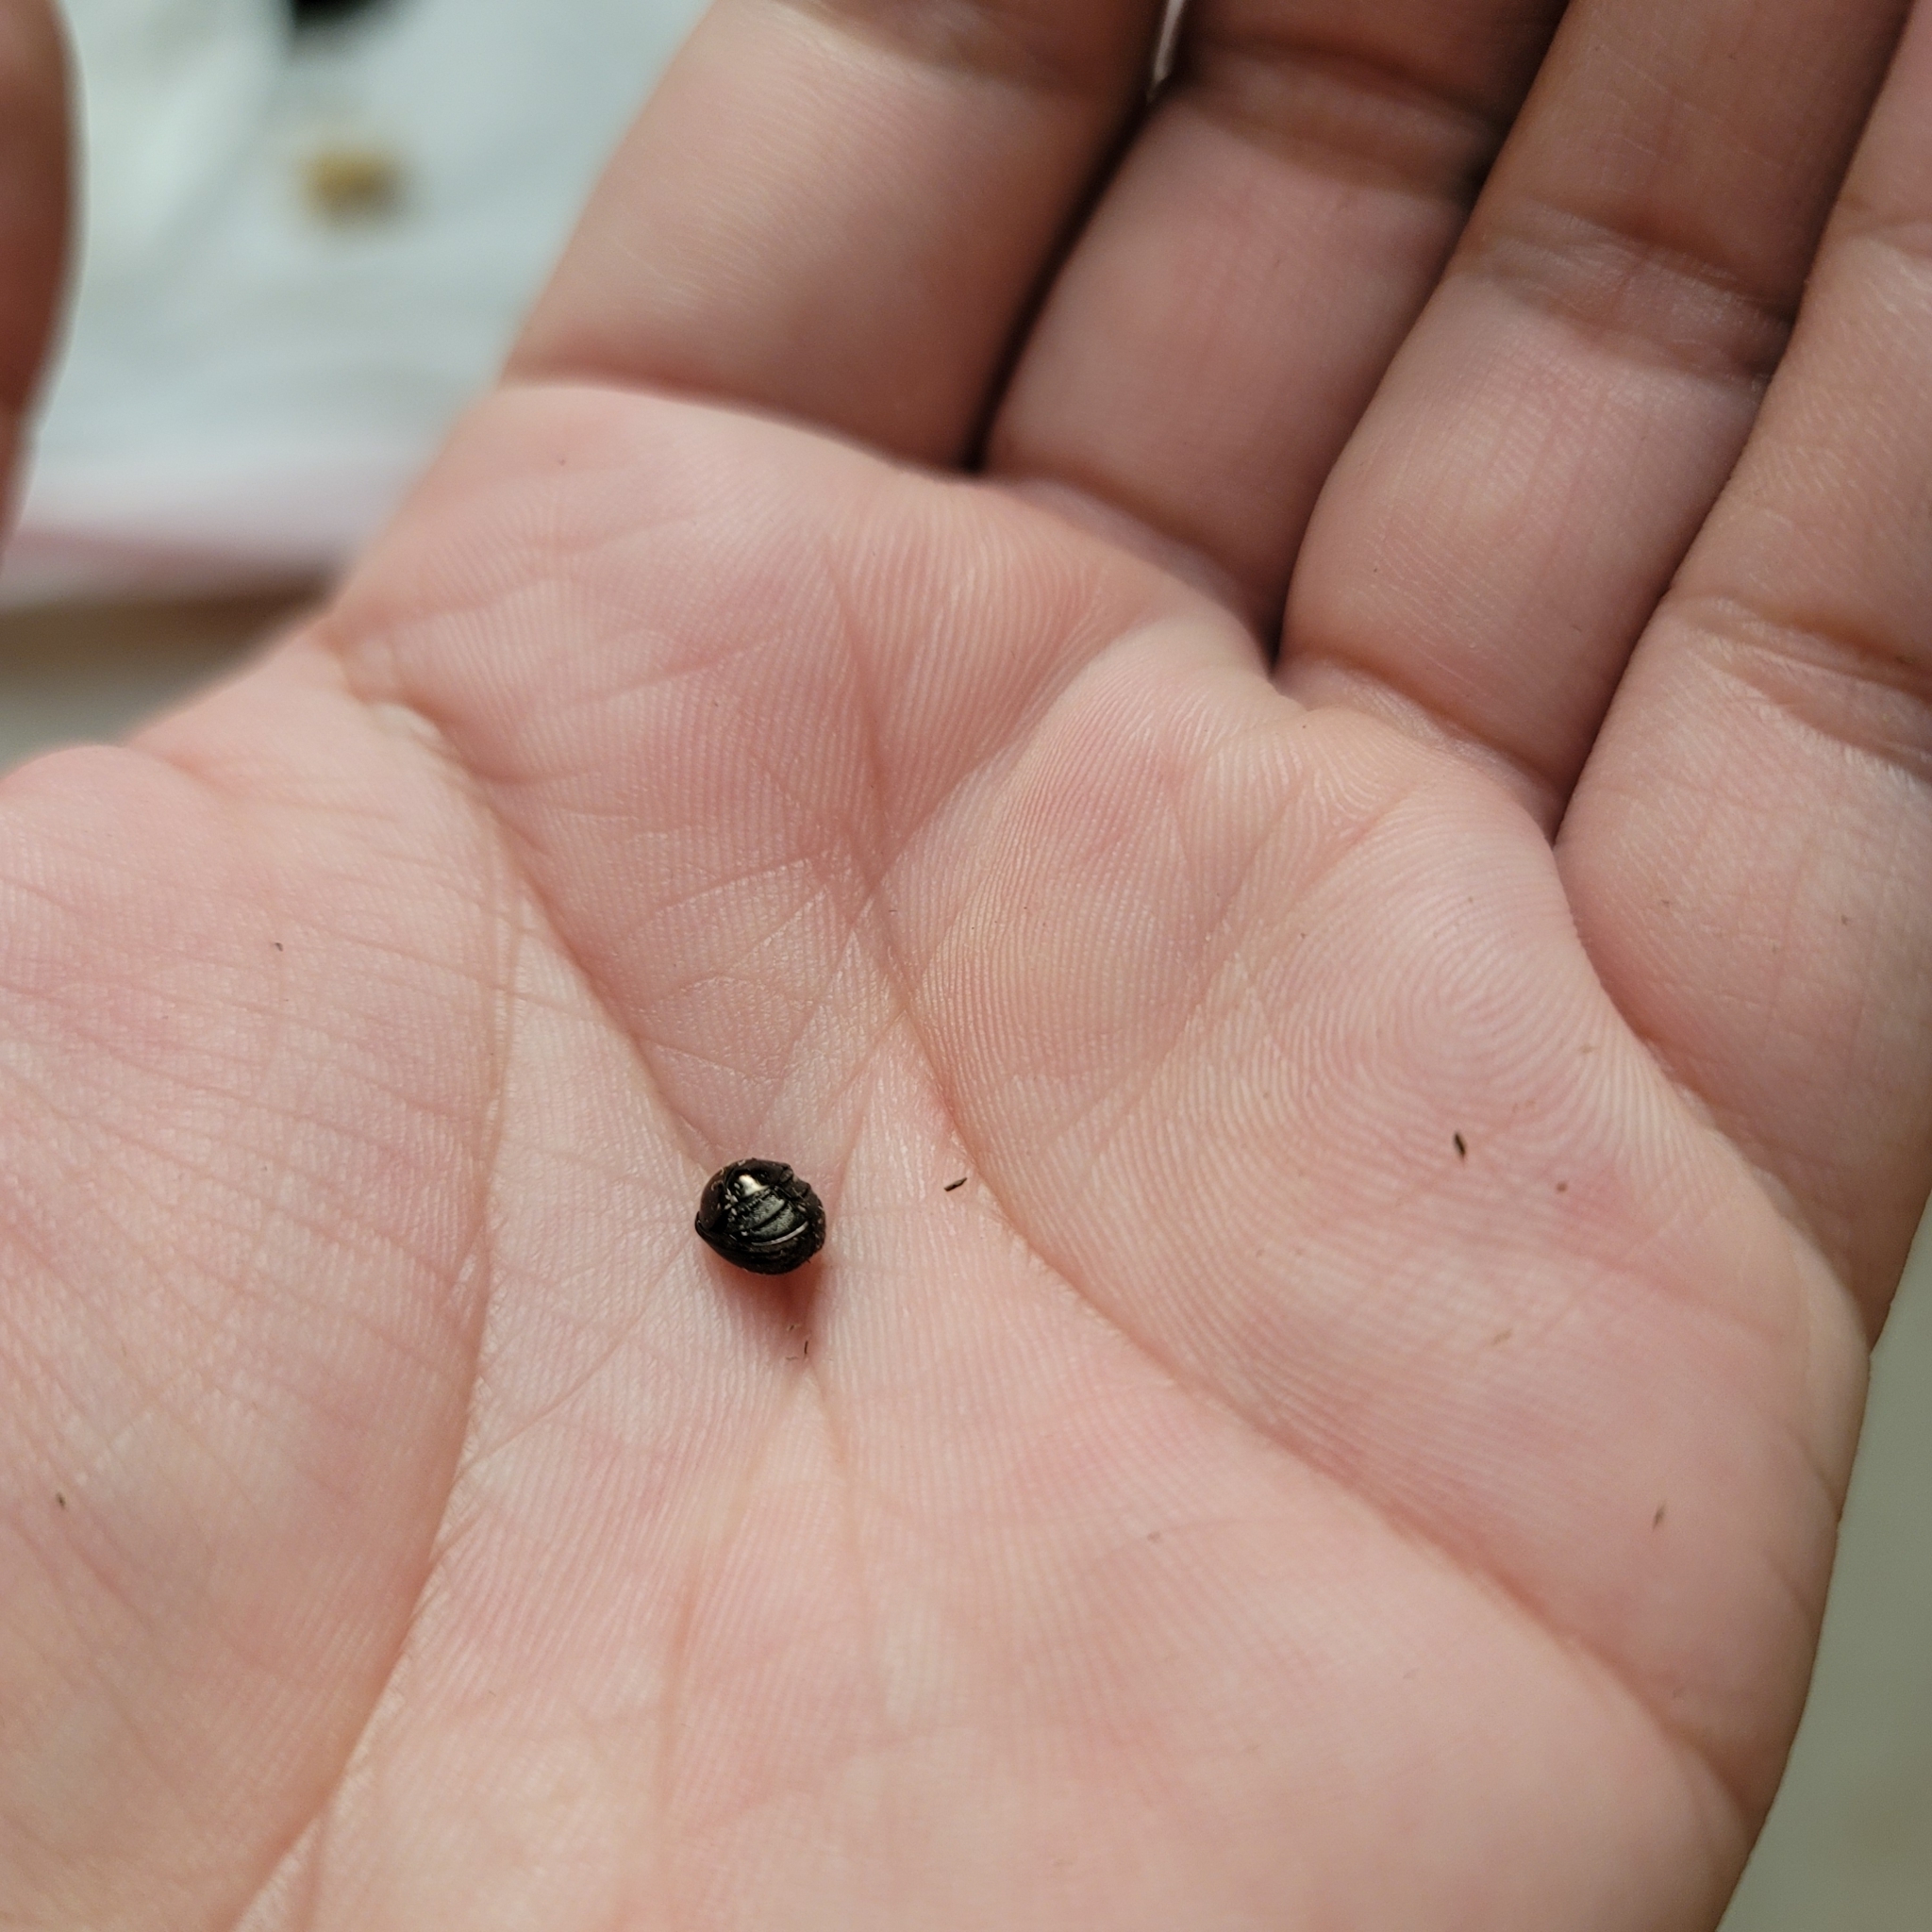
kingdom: Animalia
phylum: Arthropoda
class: Insecta
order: Coleoptera
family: Hybosoridae
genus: Ceratocanthus
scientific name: Ceratocanthus aeneus
